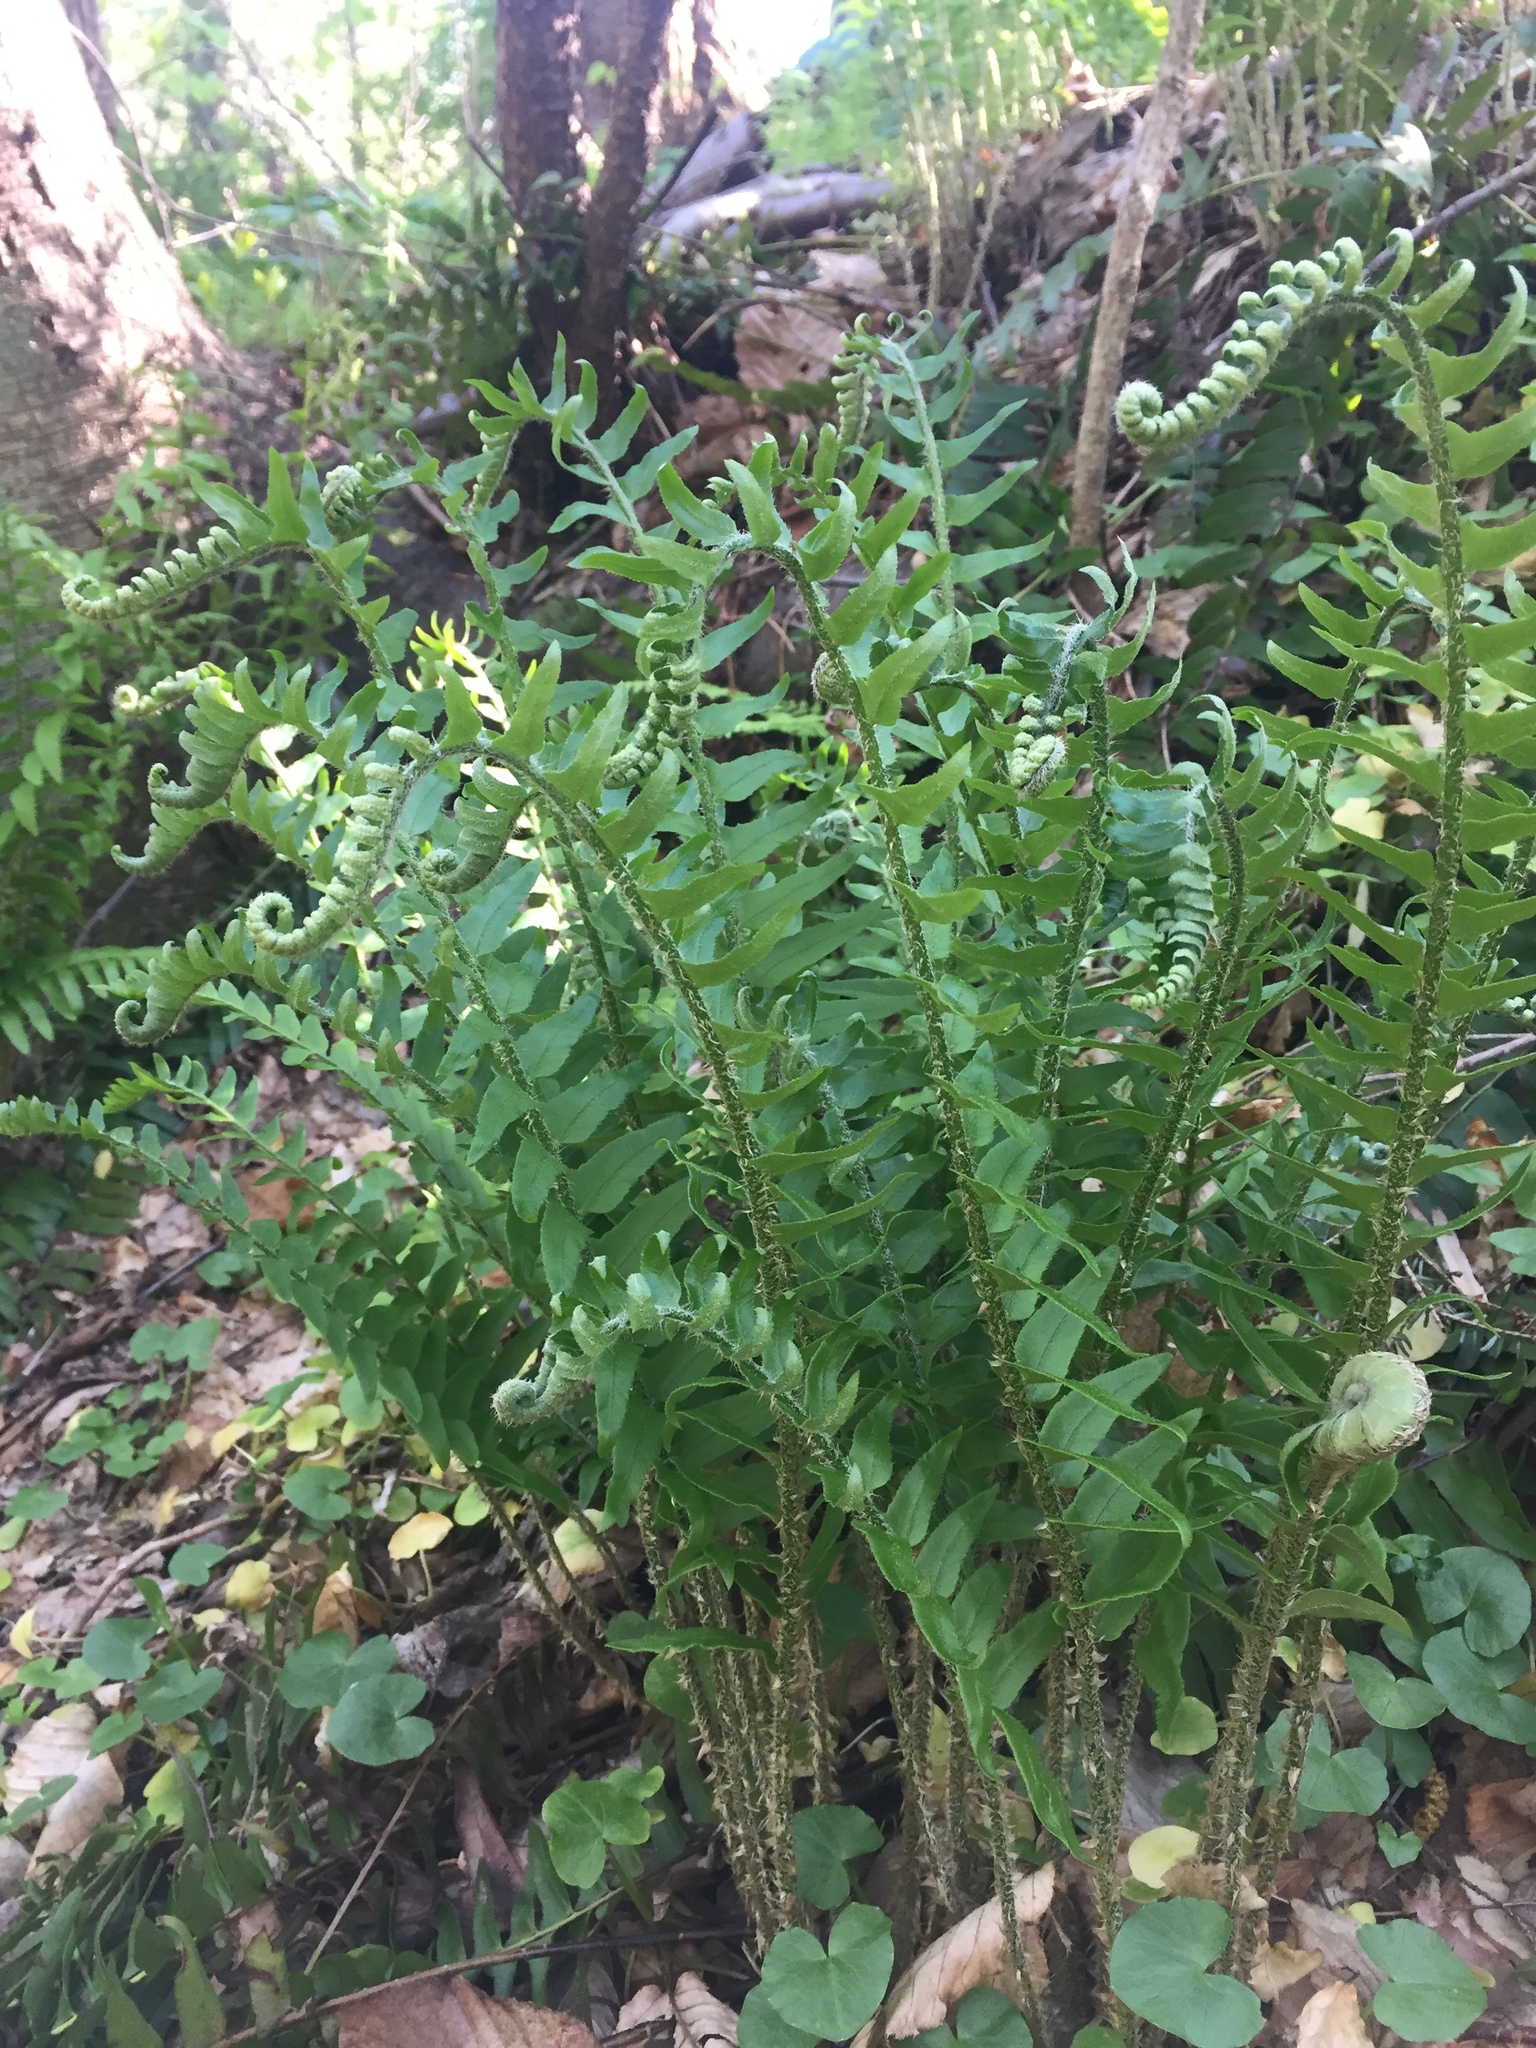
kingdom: Plantae
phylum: Tracheophyta
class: Polypodiopsida
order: Polypodiales
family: Dryopteridaceae
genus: Polystichum
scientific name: Polystichum acrostichoides
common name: Christmas fern
